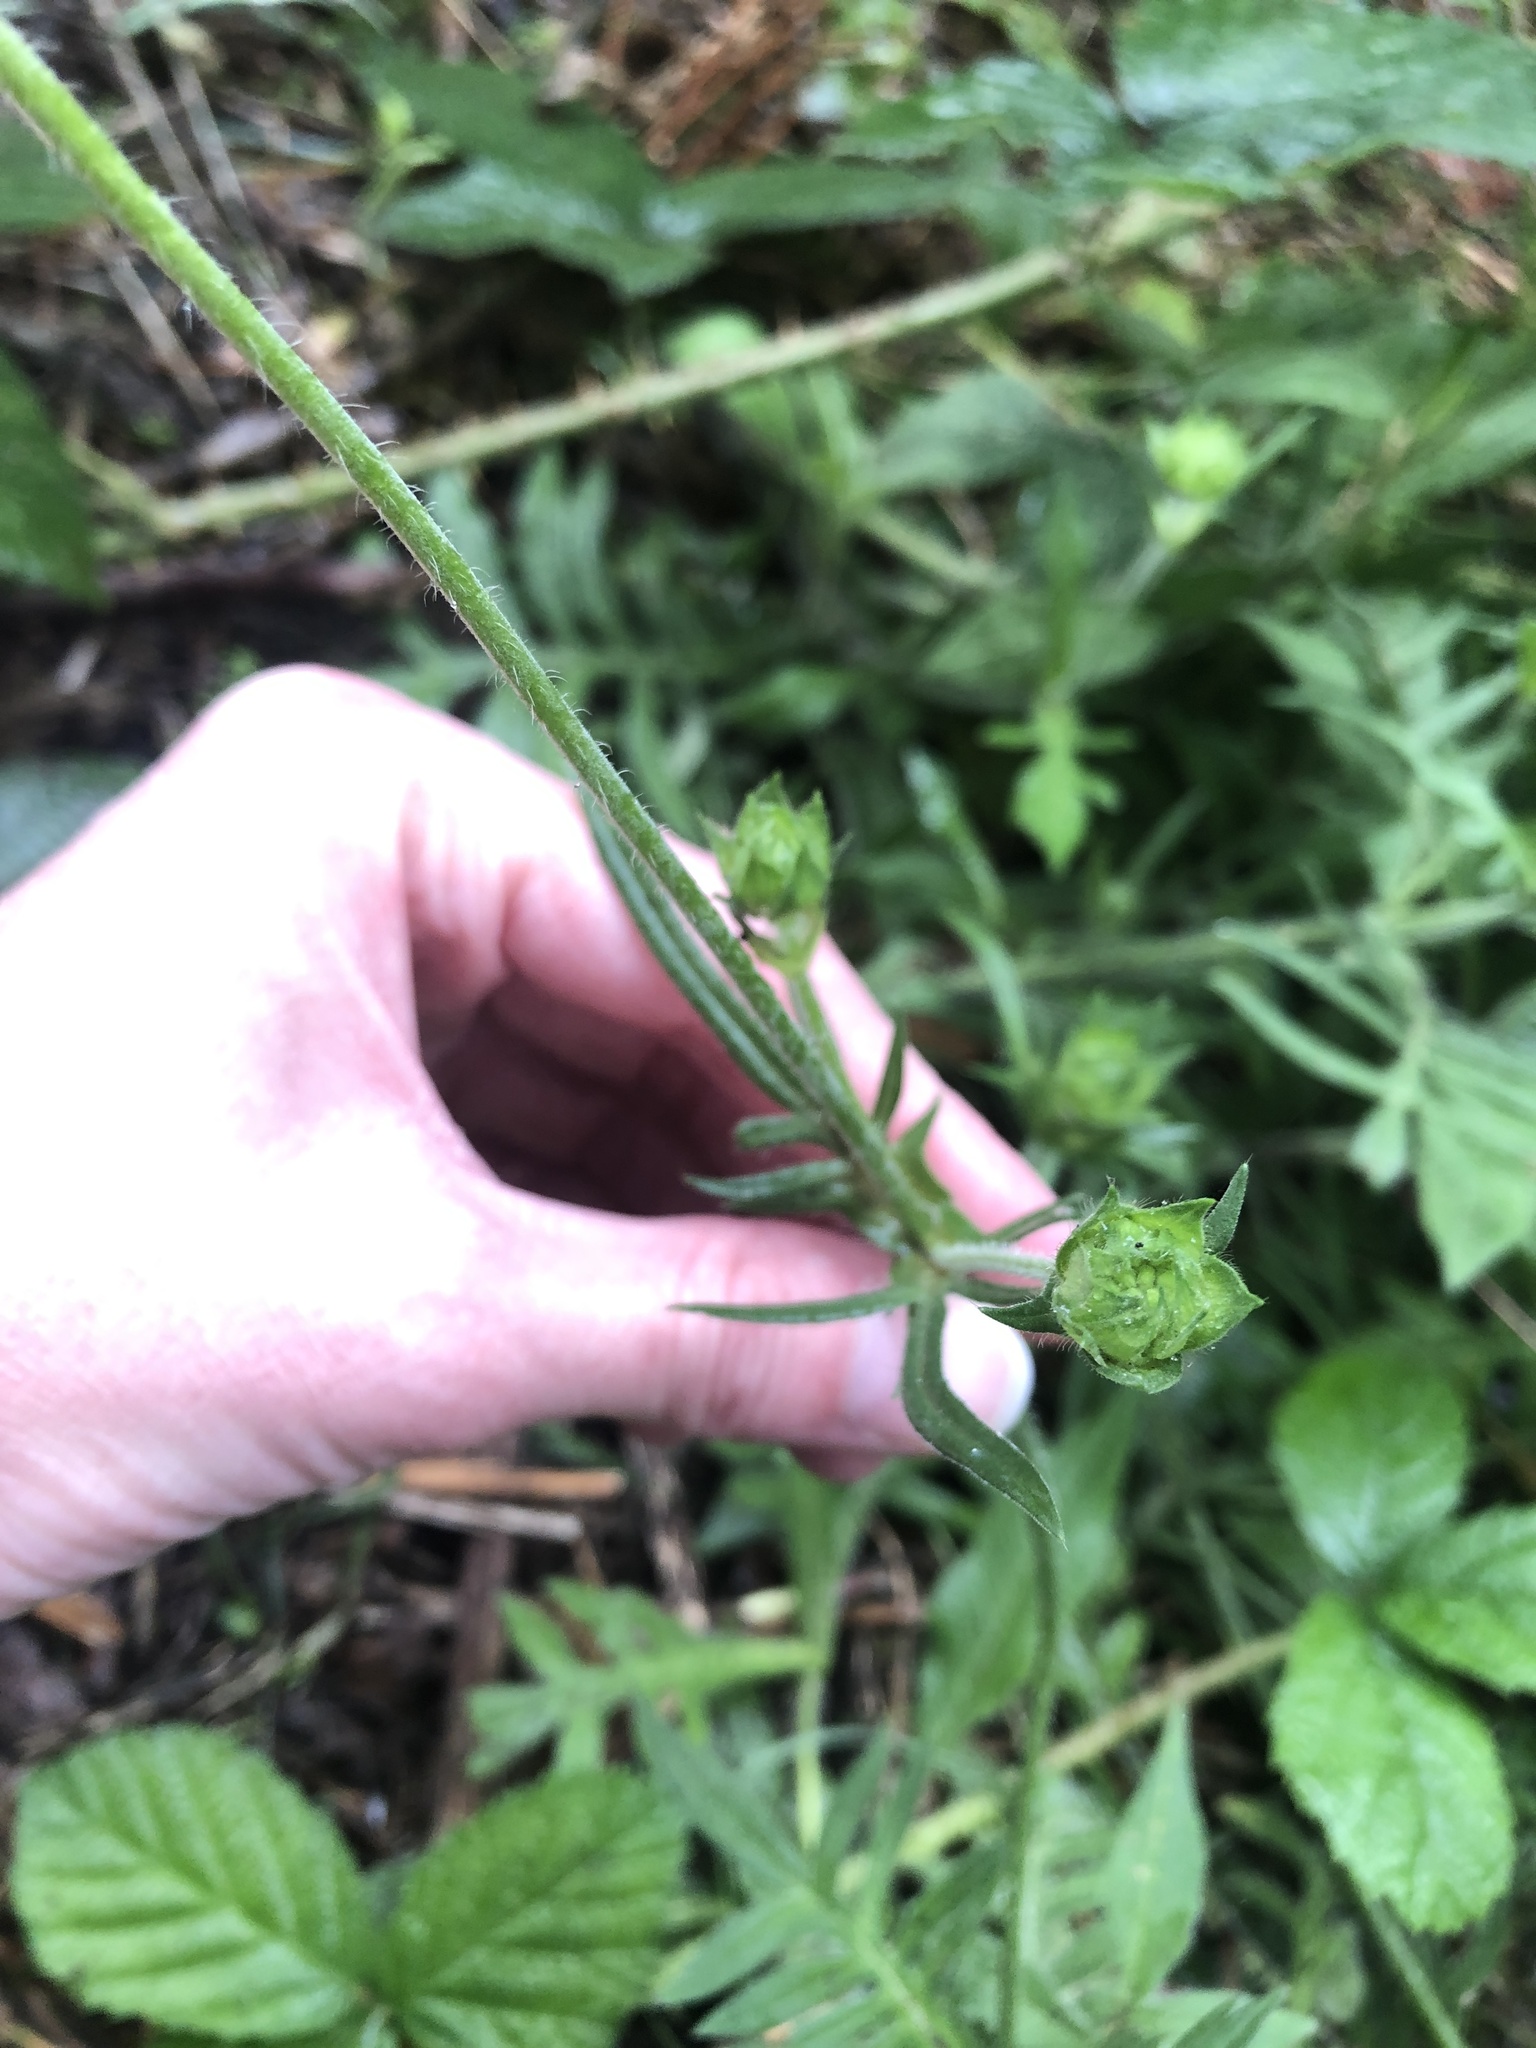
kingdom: Plantae
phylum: Tracheophyta
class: Magnoliopsida
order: Dipsacales
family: Caprifoliaceae
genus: Knautia
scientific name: Knautia arvensis
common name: Field scabiosa
